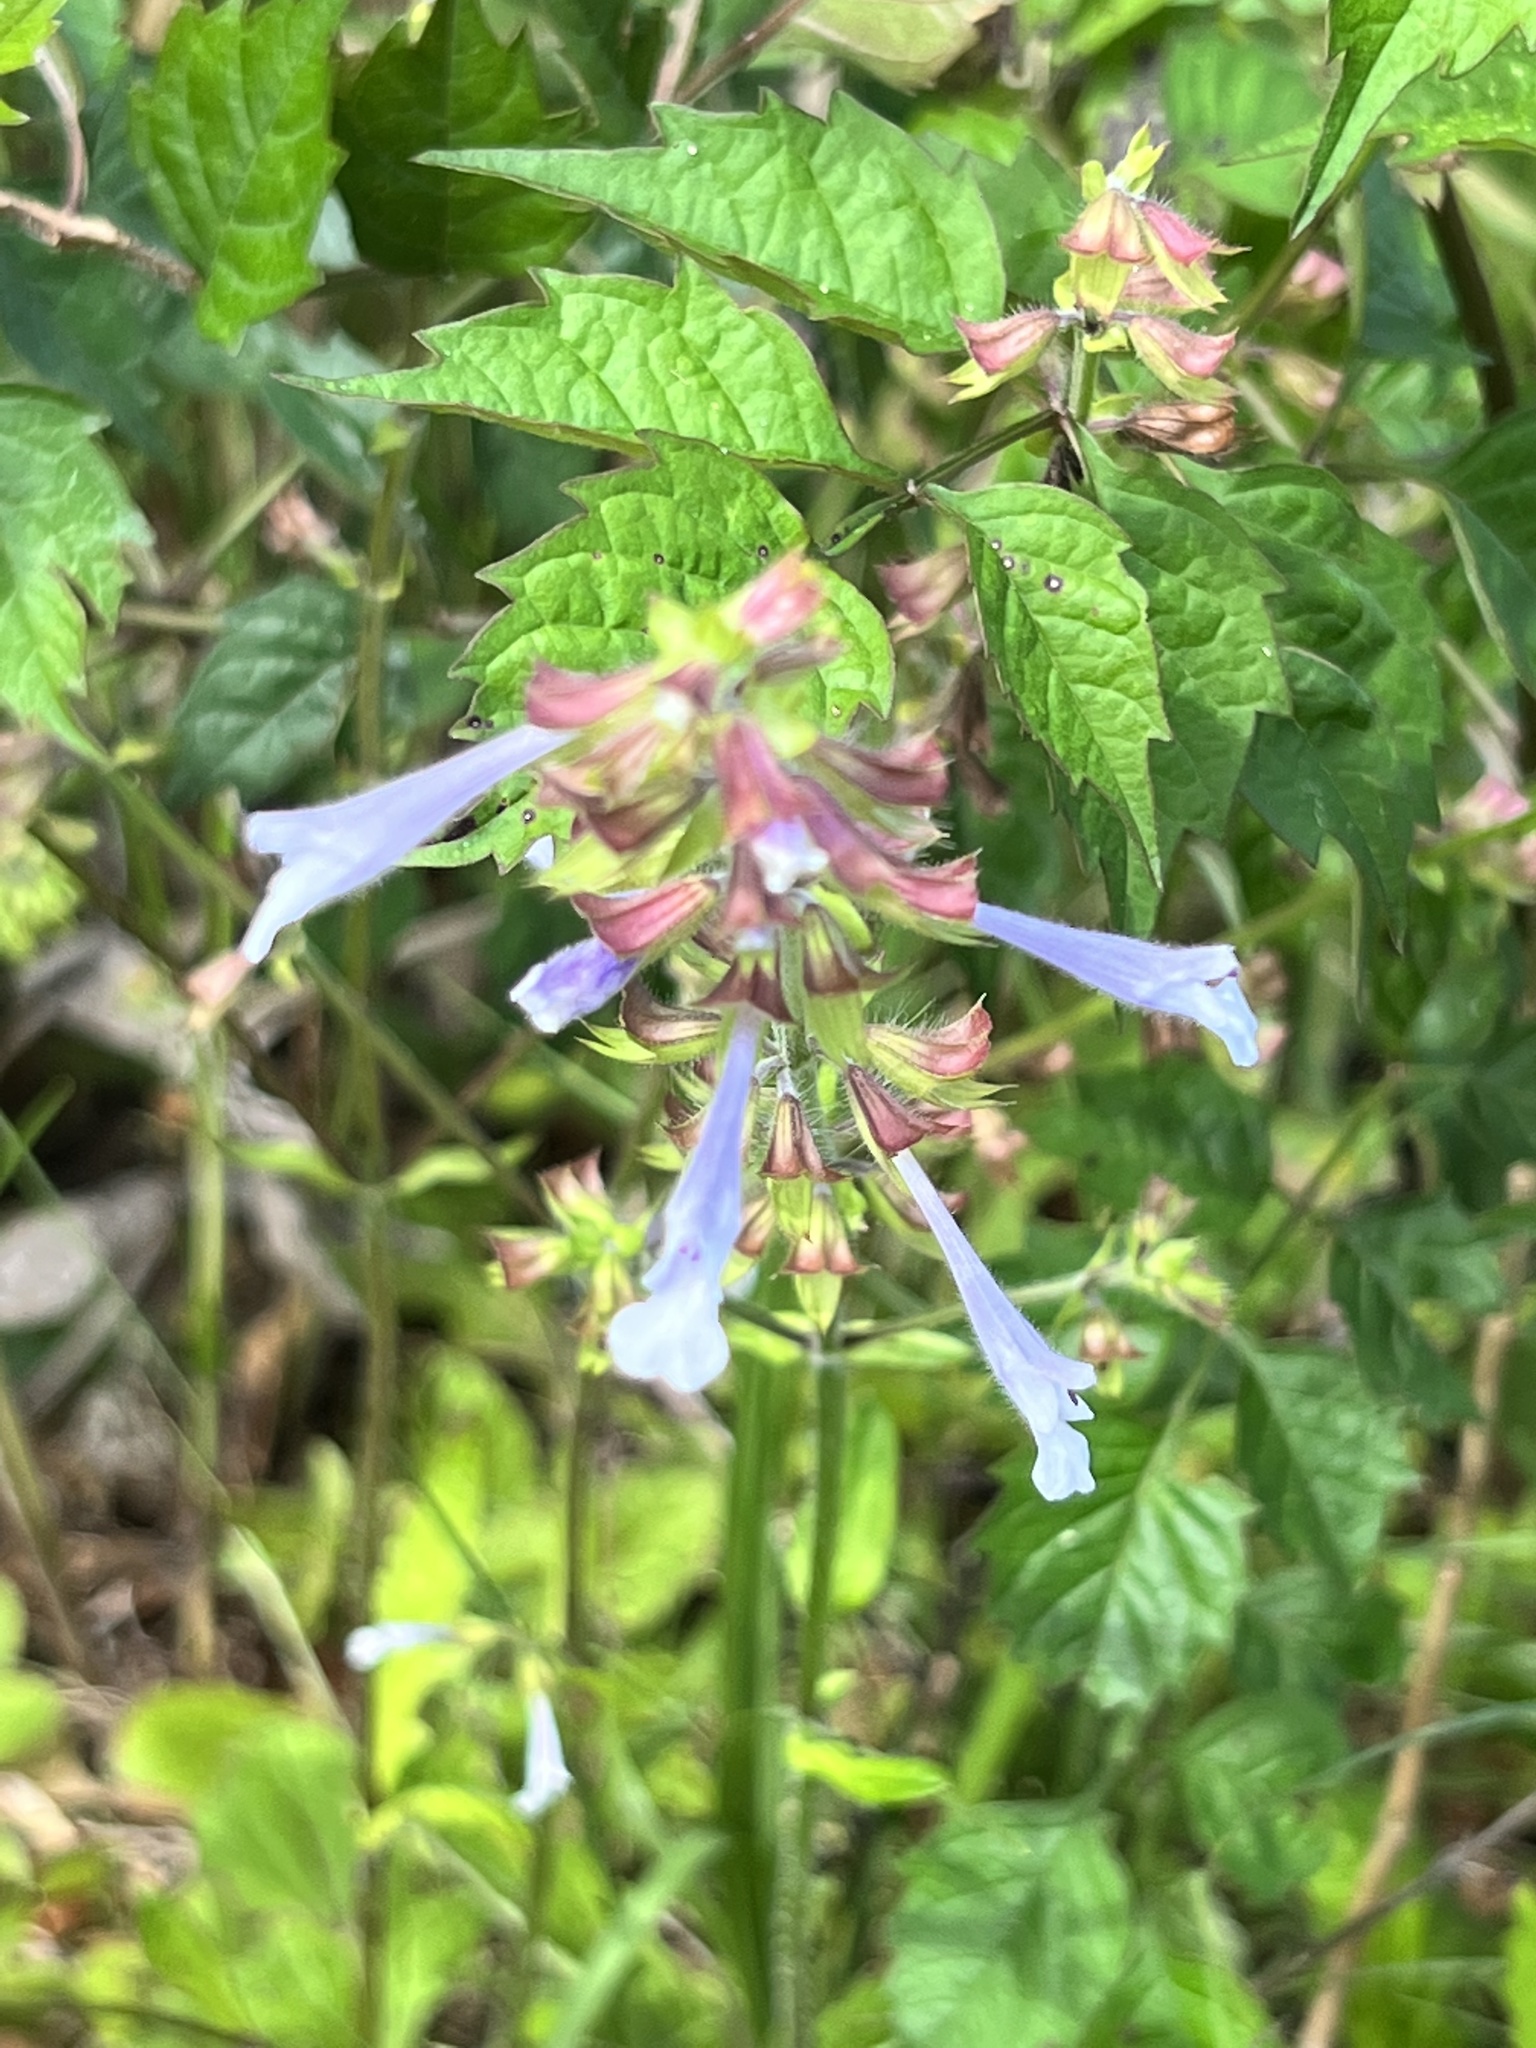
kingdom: Plantae
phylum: Tracheophyta
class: Magnoliopsida
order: Lamiales
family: Lamiaceae
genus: Salvia
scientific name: Salvia lyrata
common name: Cancerweed
